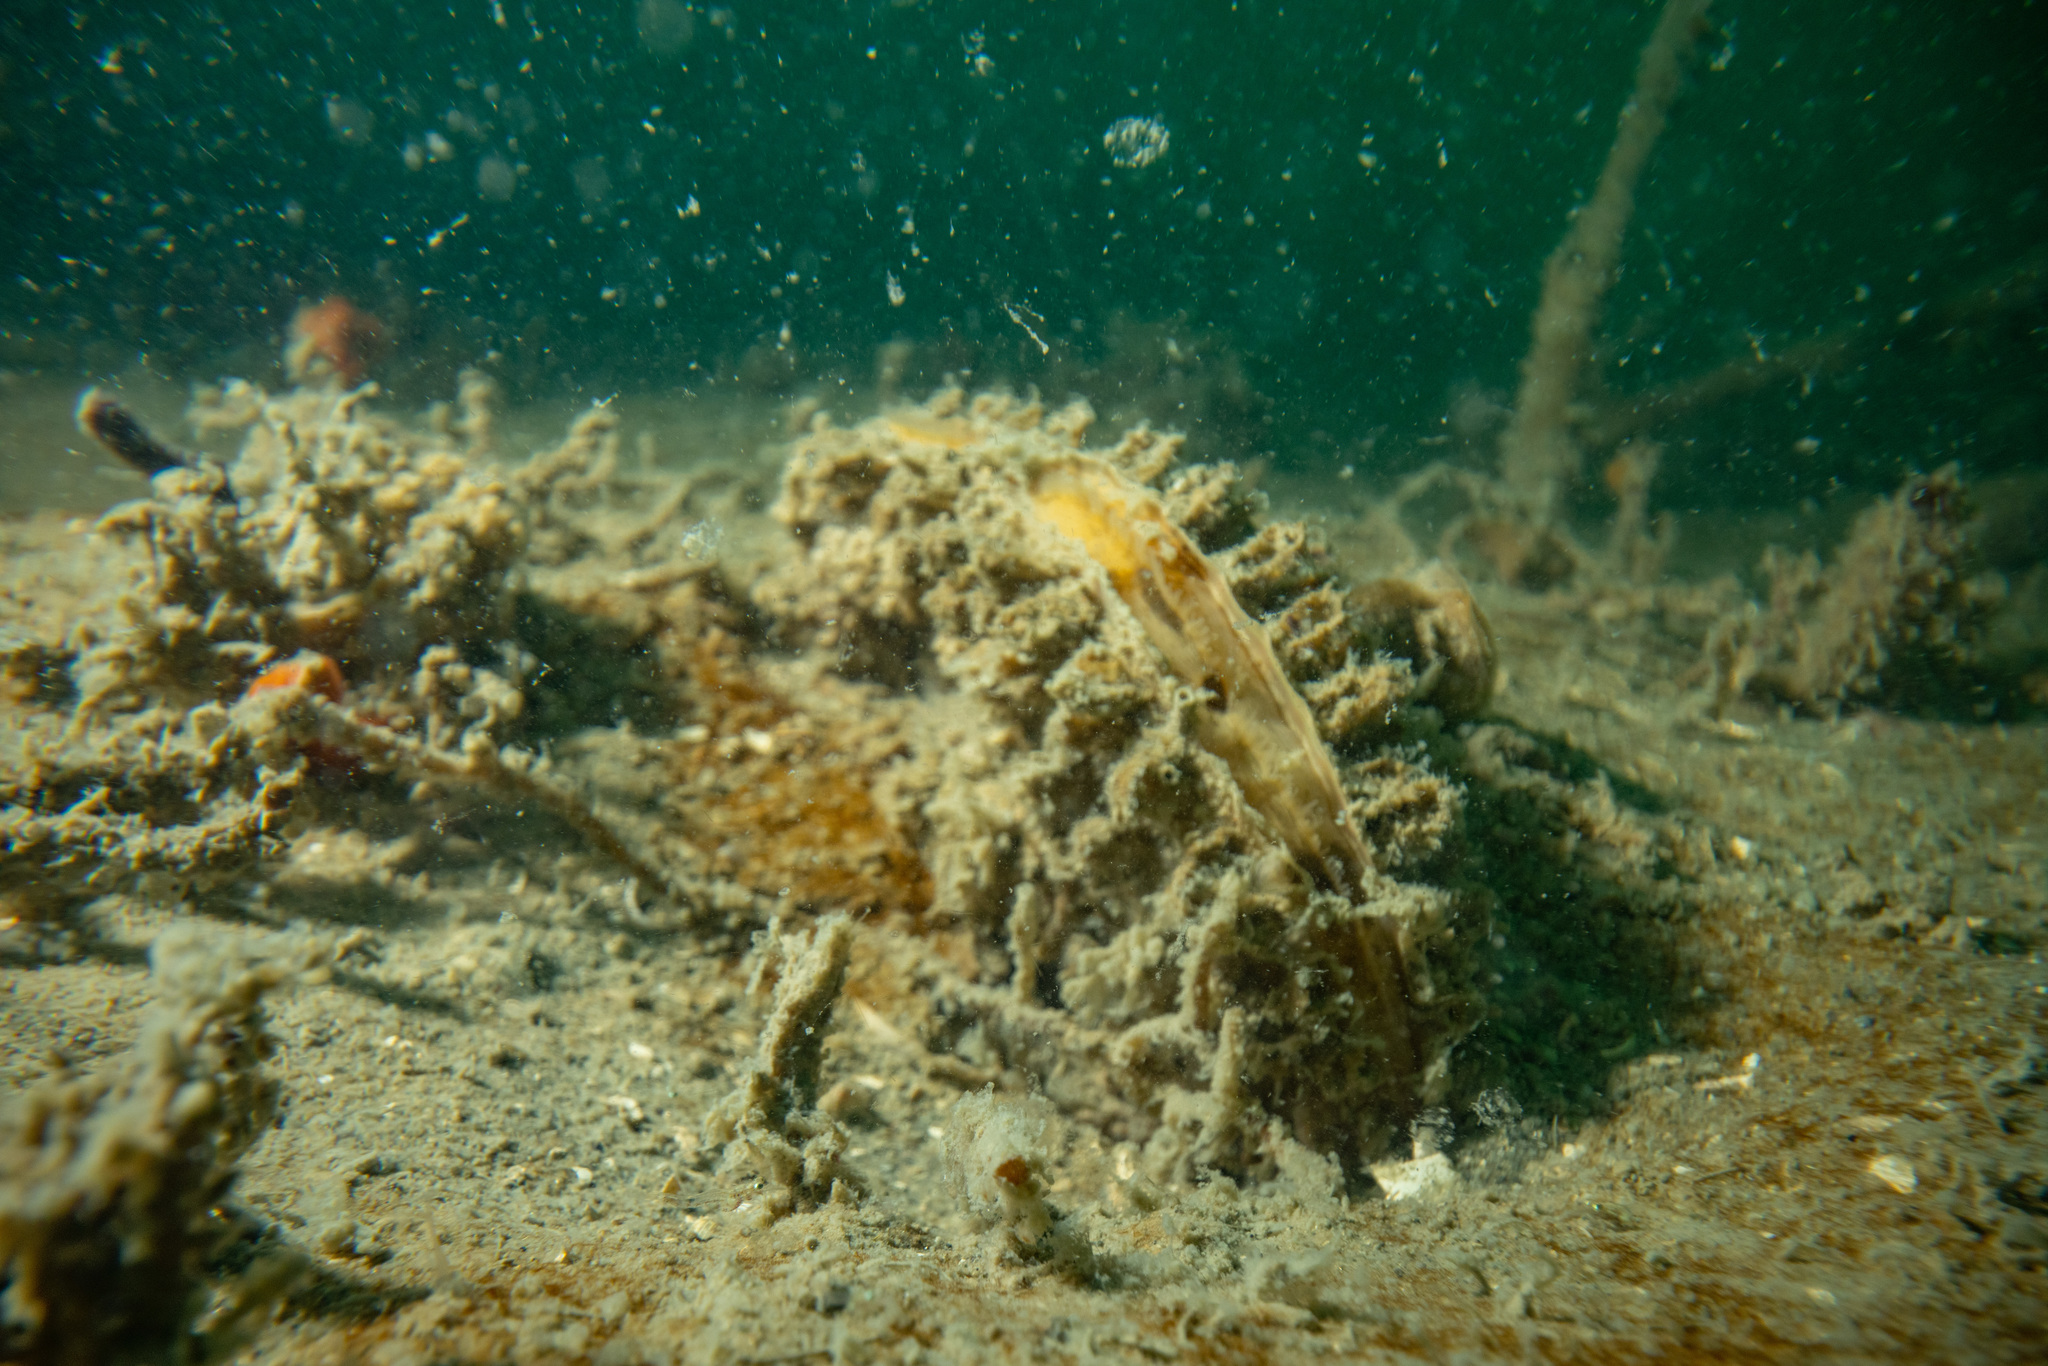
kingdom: Animalia
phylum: Mollusca
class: Bivalvia
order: Ostreida
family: Pinnidae
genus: Atrina
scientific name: Atrina zelandica
